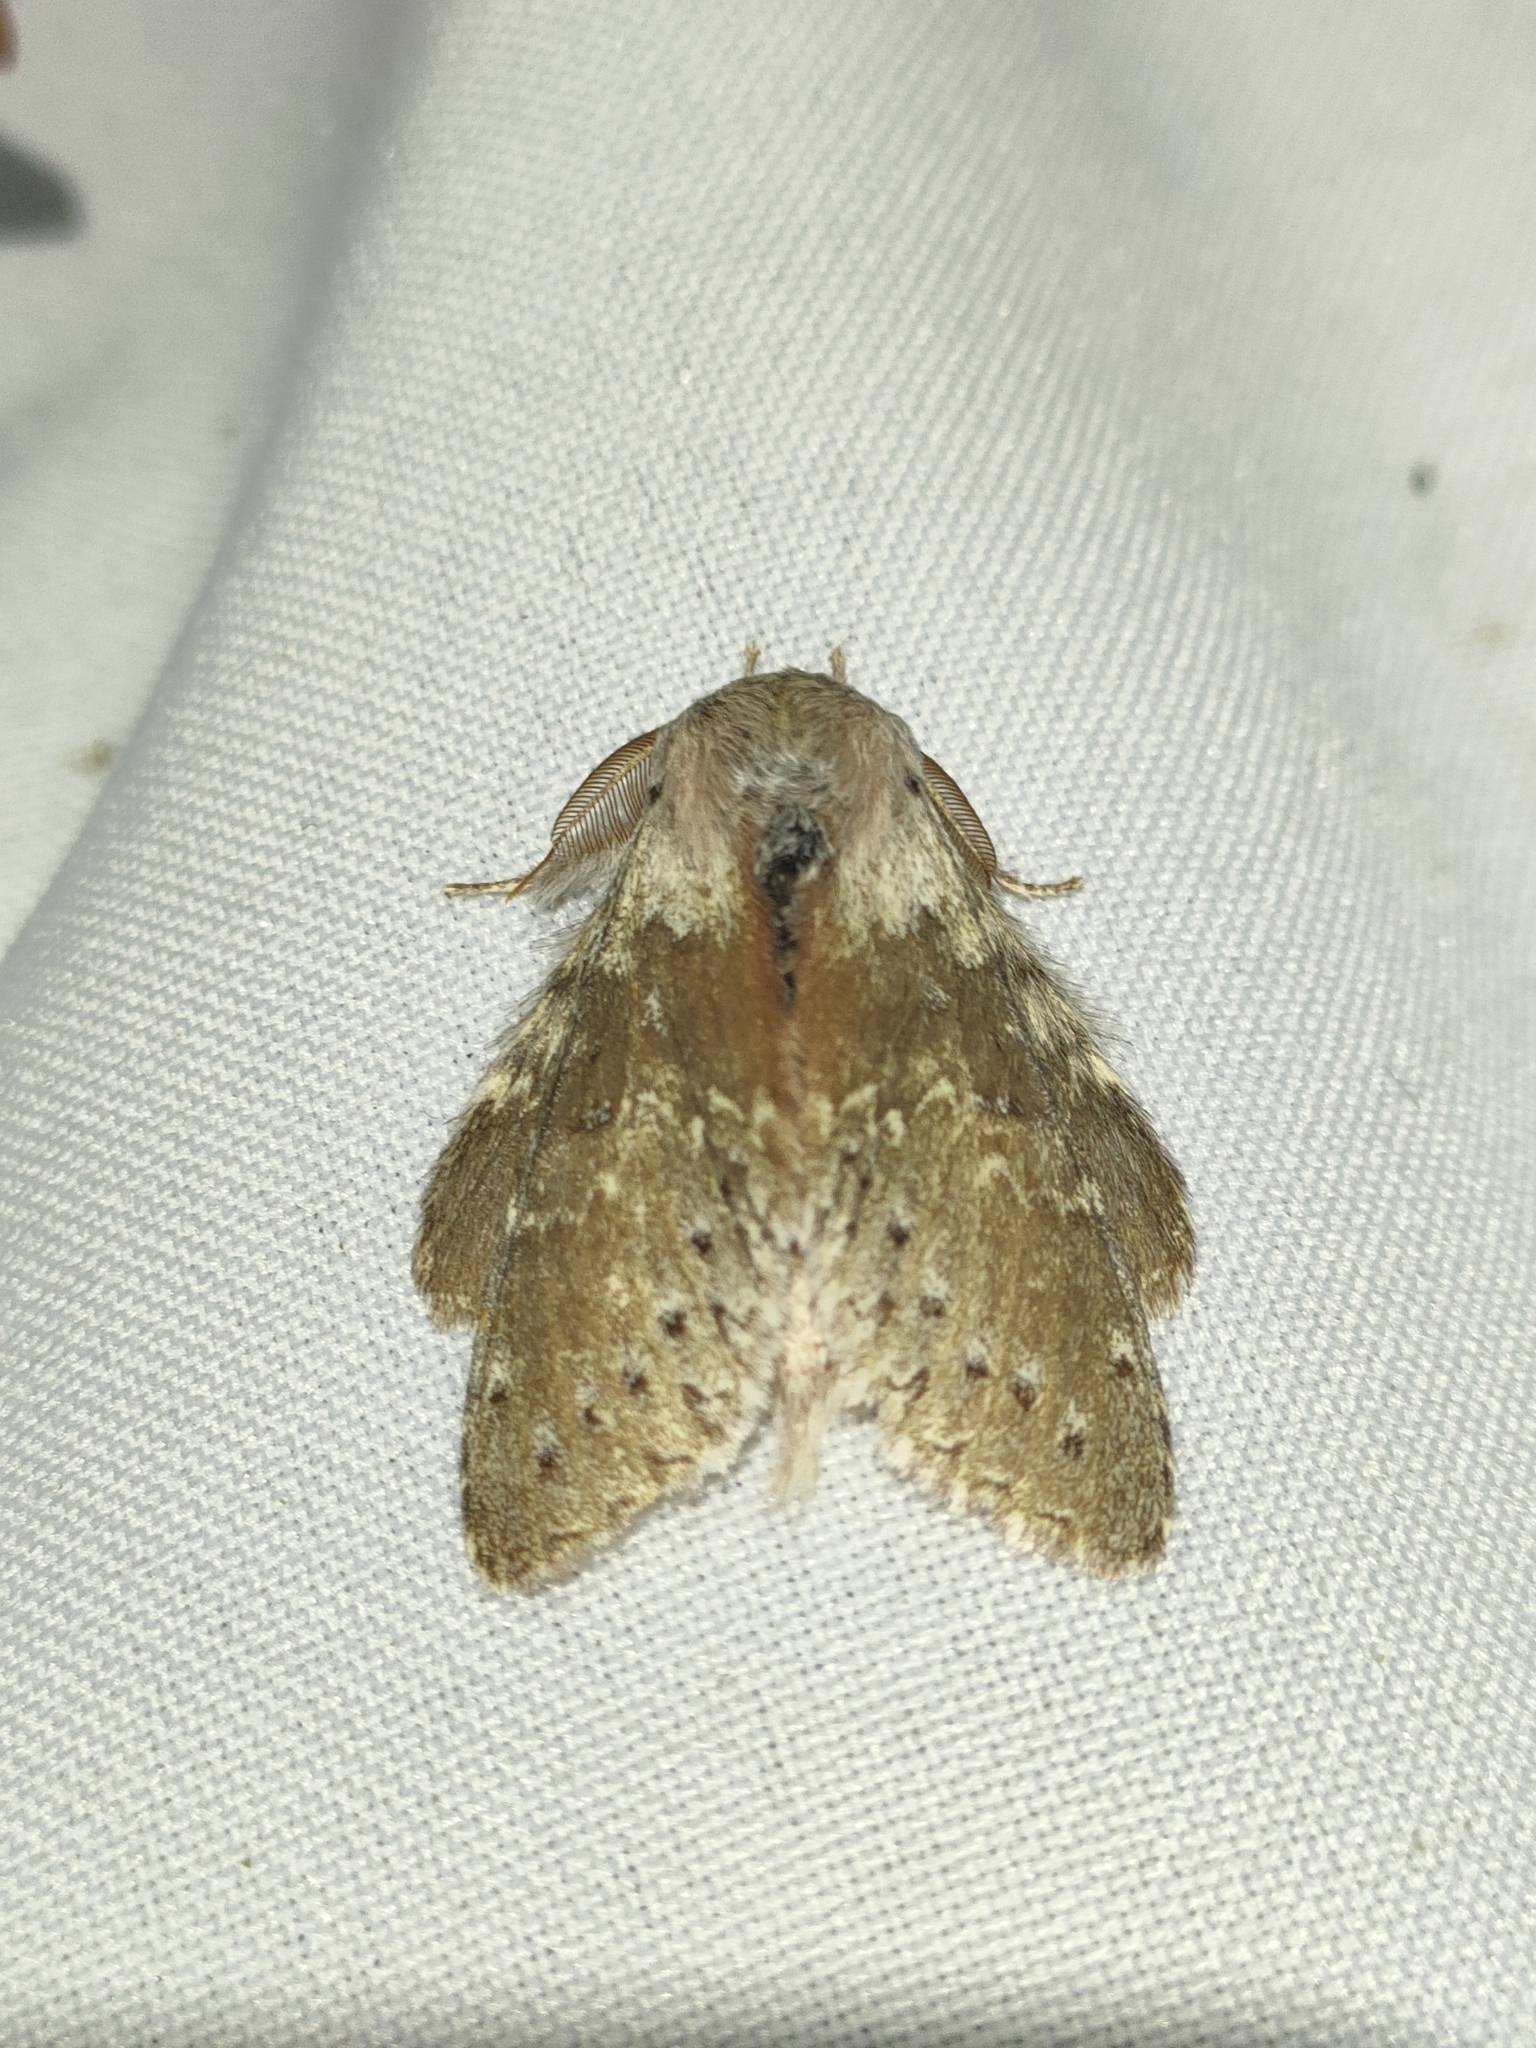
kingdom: Animalia
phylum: Arthropoda
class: Insecta
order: Lepidoptera
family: Notodontidae
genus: Stauropus
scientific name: Stauropus fagi
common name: Lobster moth
